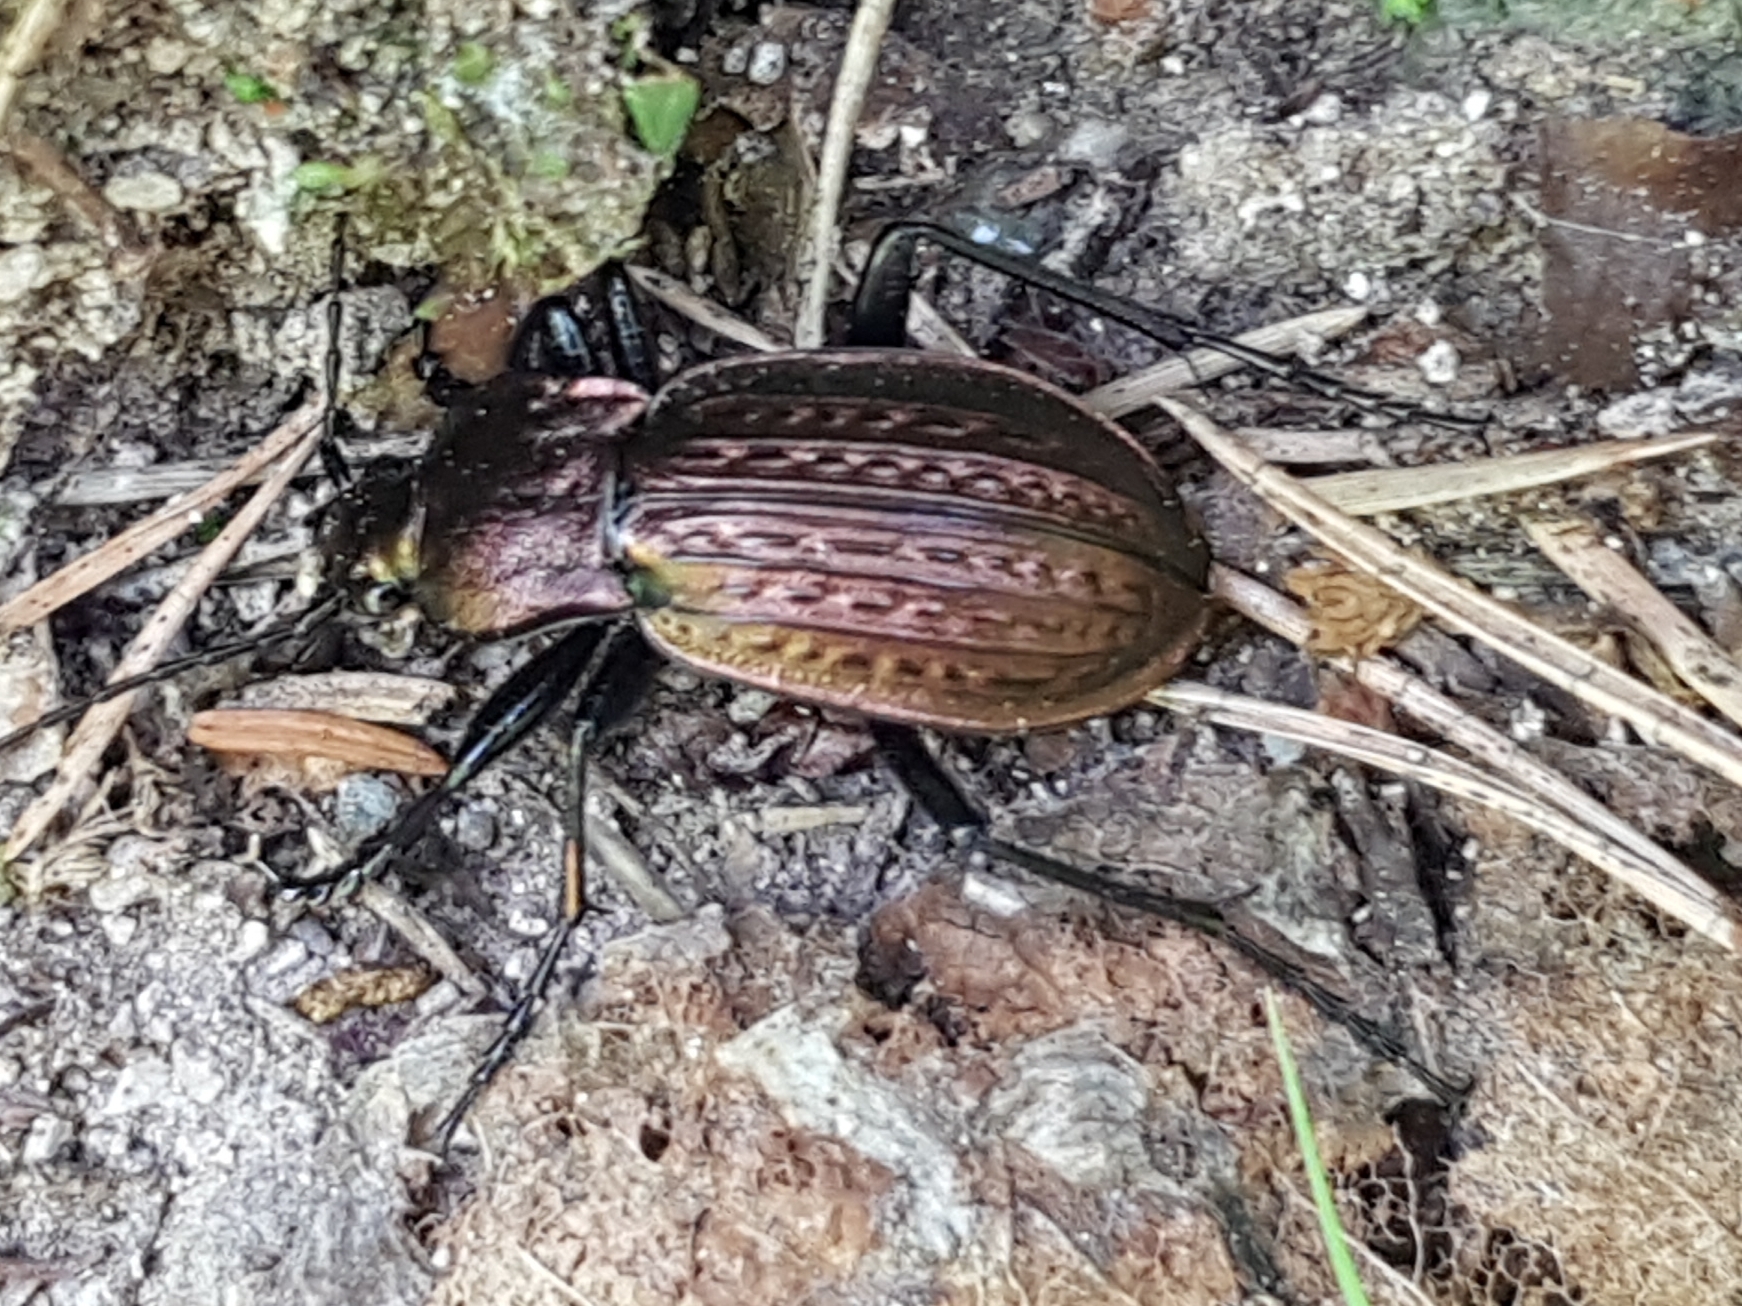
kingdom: Animalia
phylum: Arthropoda
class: Insecta
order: Coleoptera
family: Carabidae
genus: Carabus
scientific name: Carabus ulrichii
